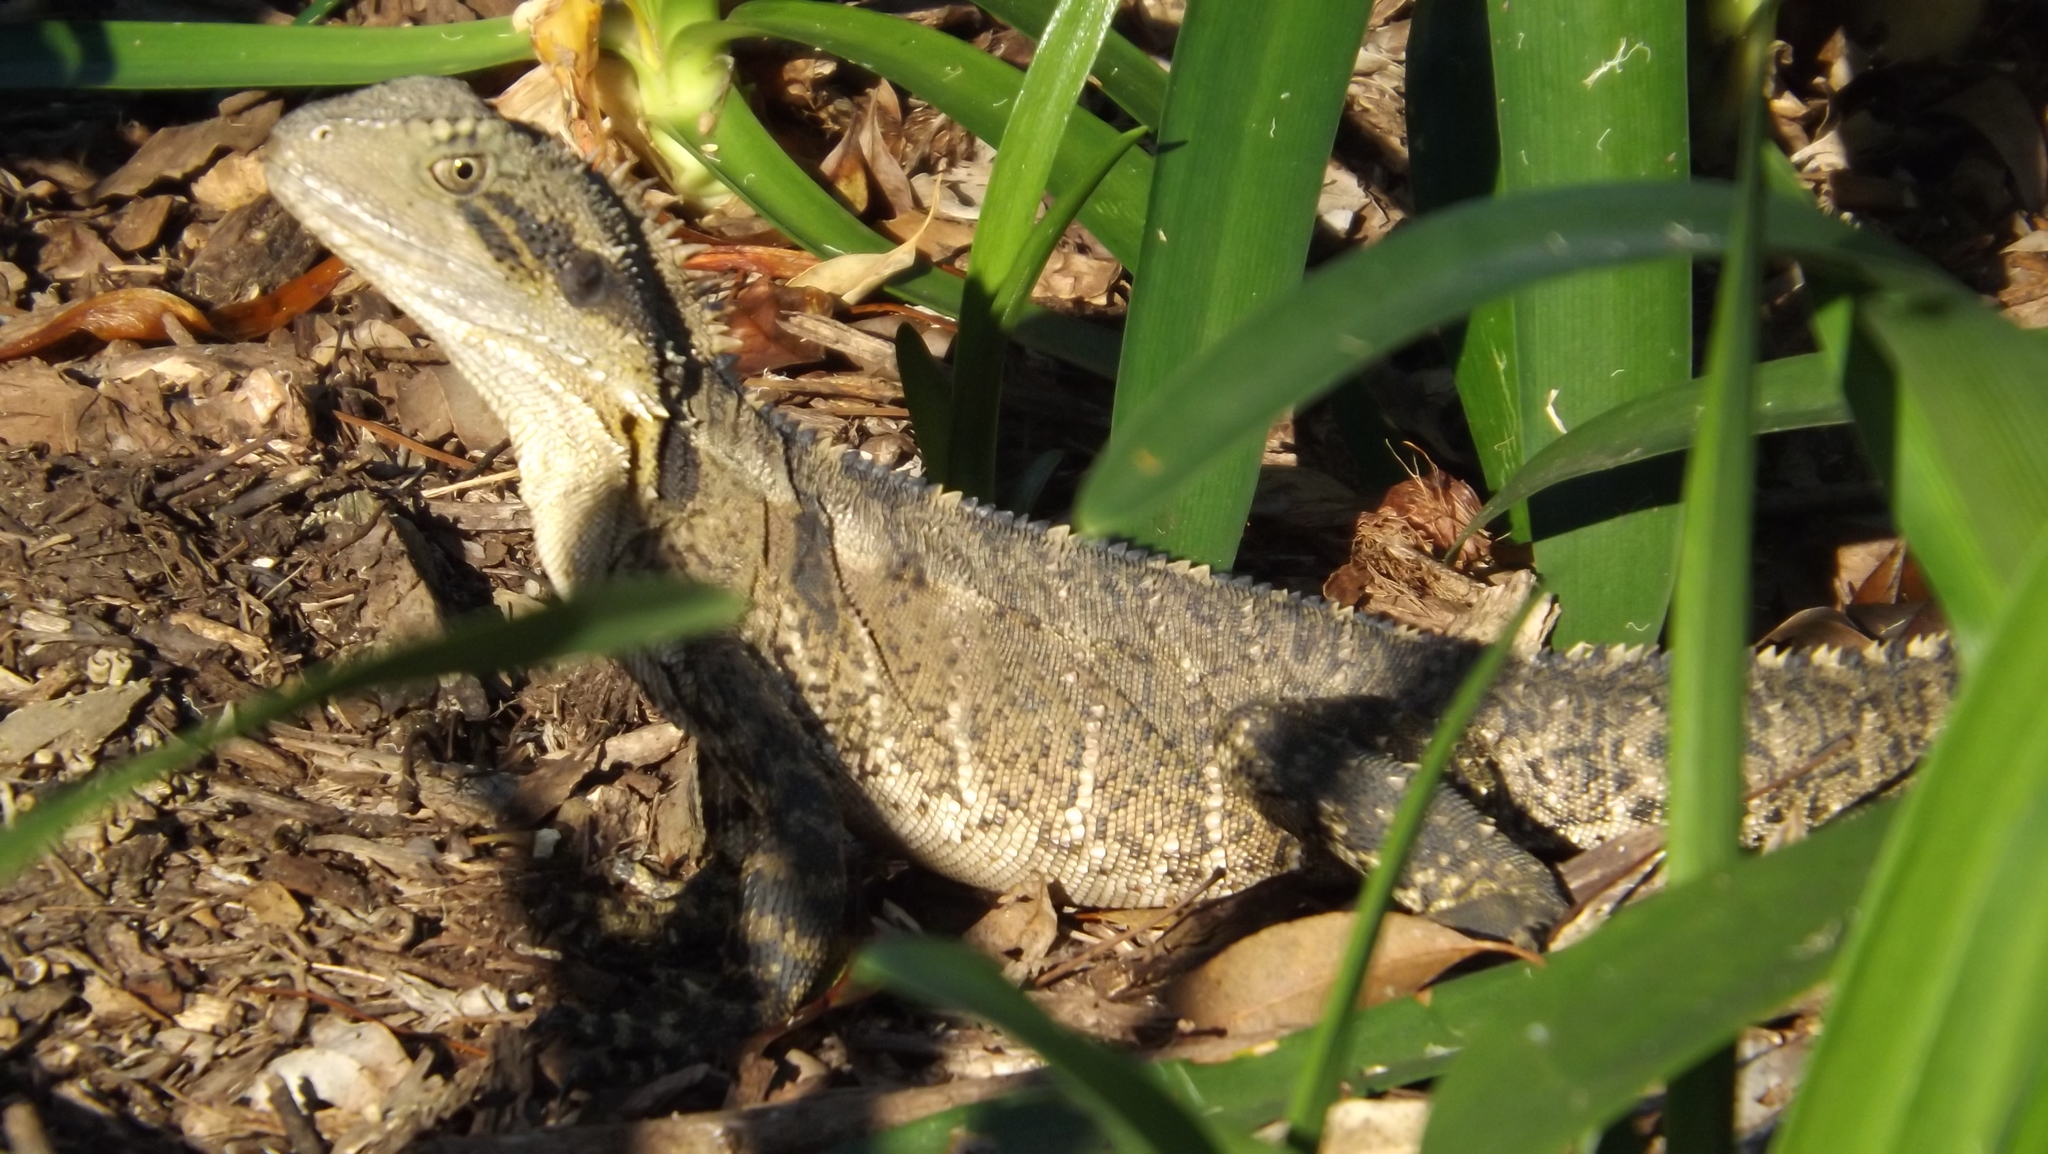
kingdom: Animalia
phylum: Chordata
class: Squamata
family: Agamidae
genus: Intellagama
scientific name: Intellagama lesueurii
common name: Eastern water dragon
